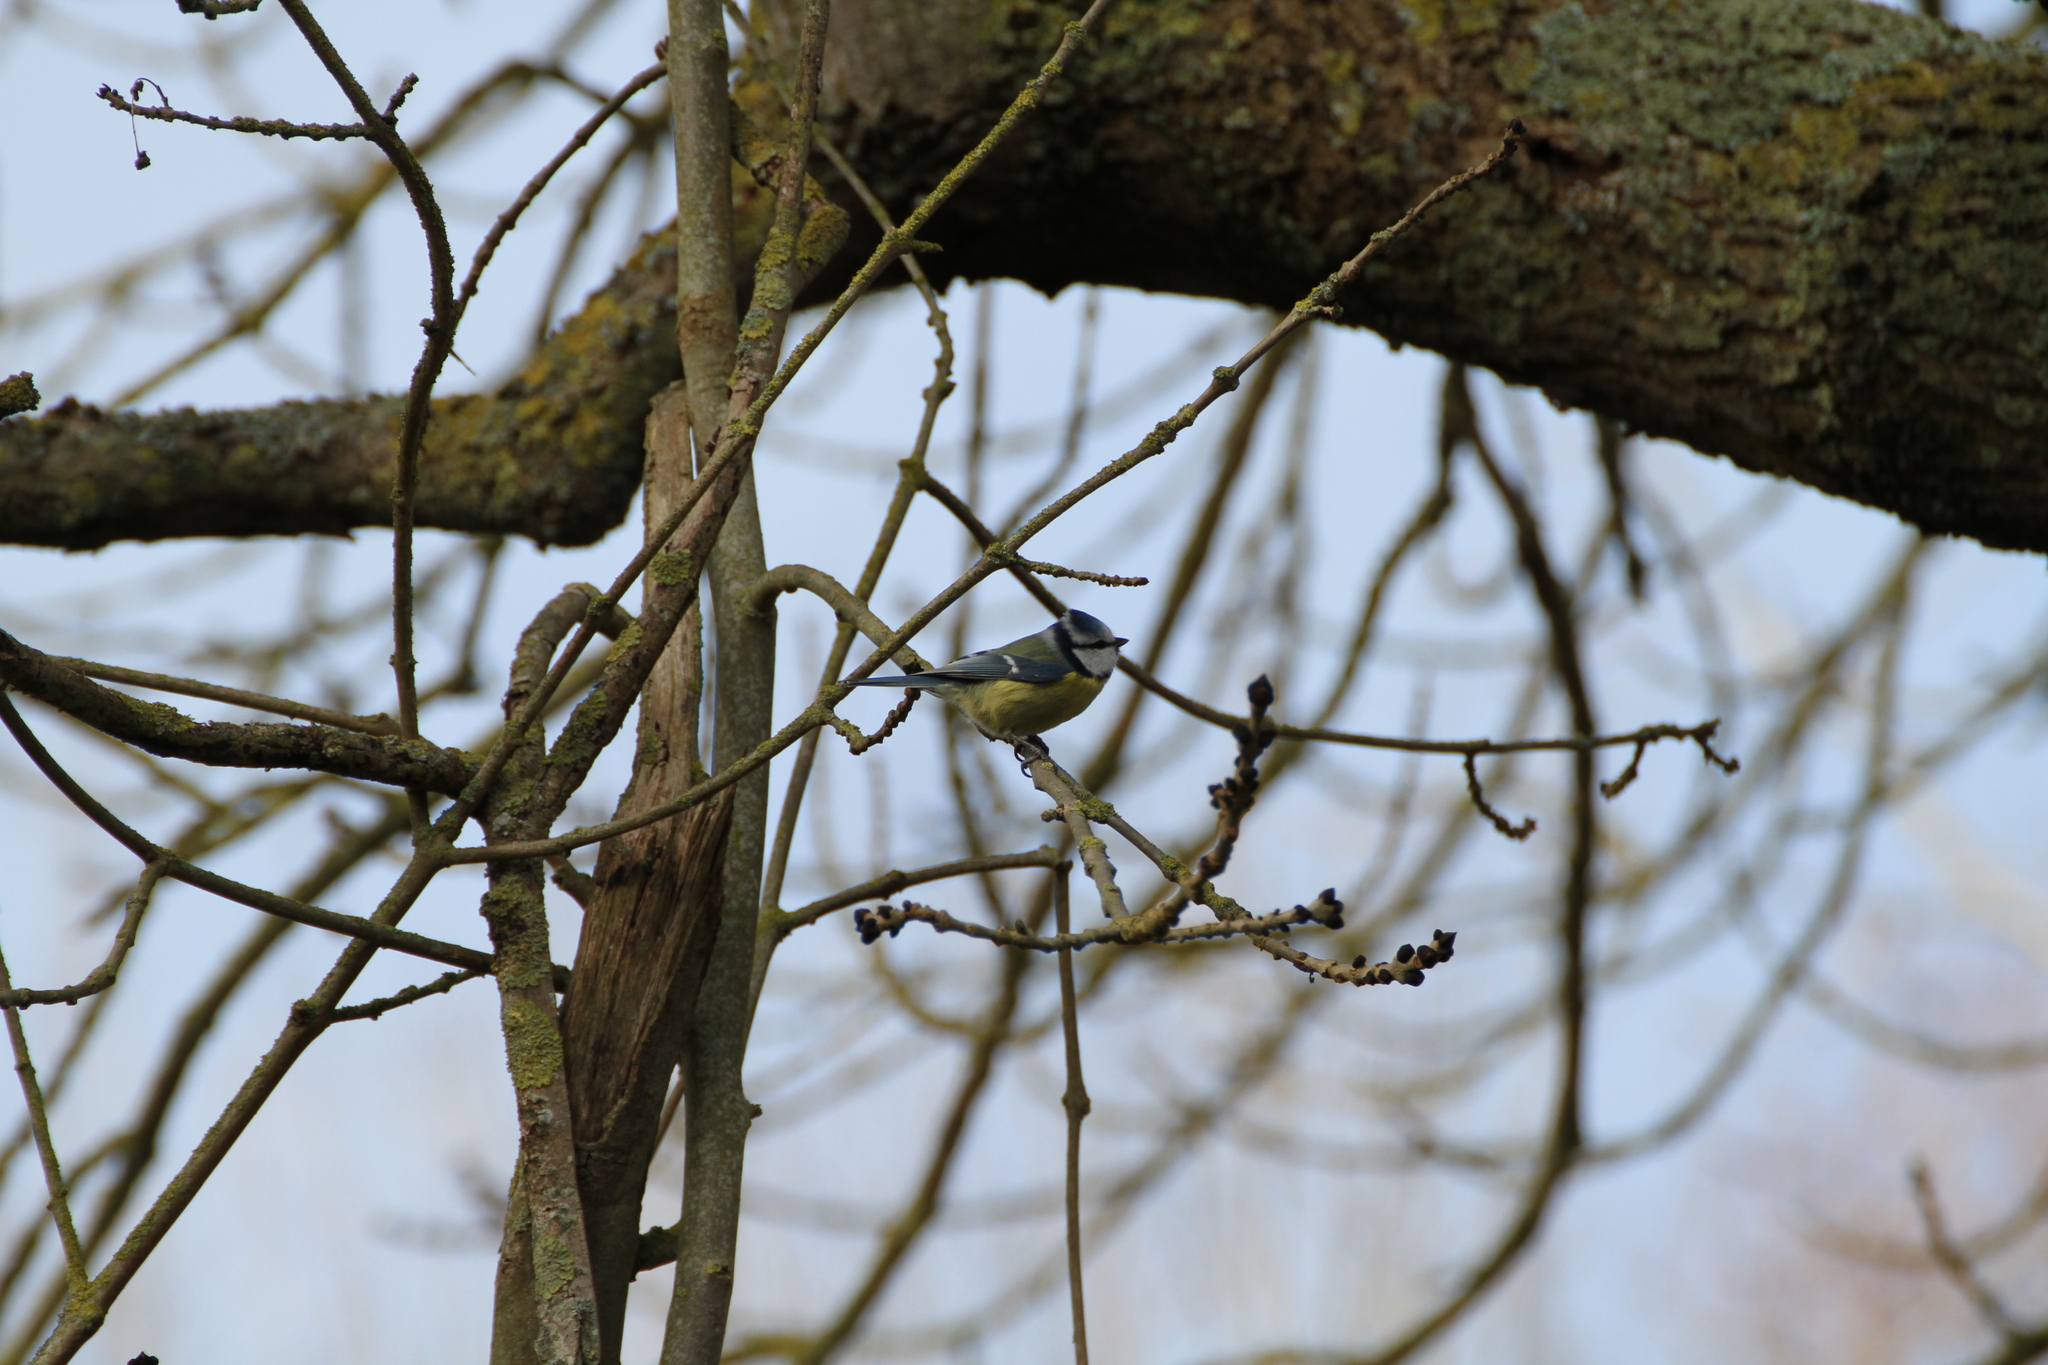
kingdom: Animalia
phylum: Chordata
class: Aves
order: Passeriformes
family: Paridae
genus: Cyanistes
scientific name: Cyanistes caeruleus
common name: Eurasian blue tit
